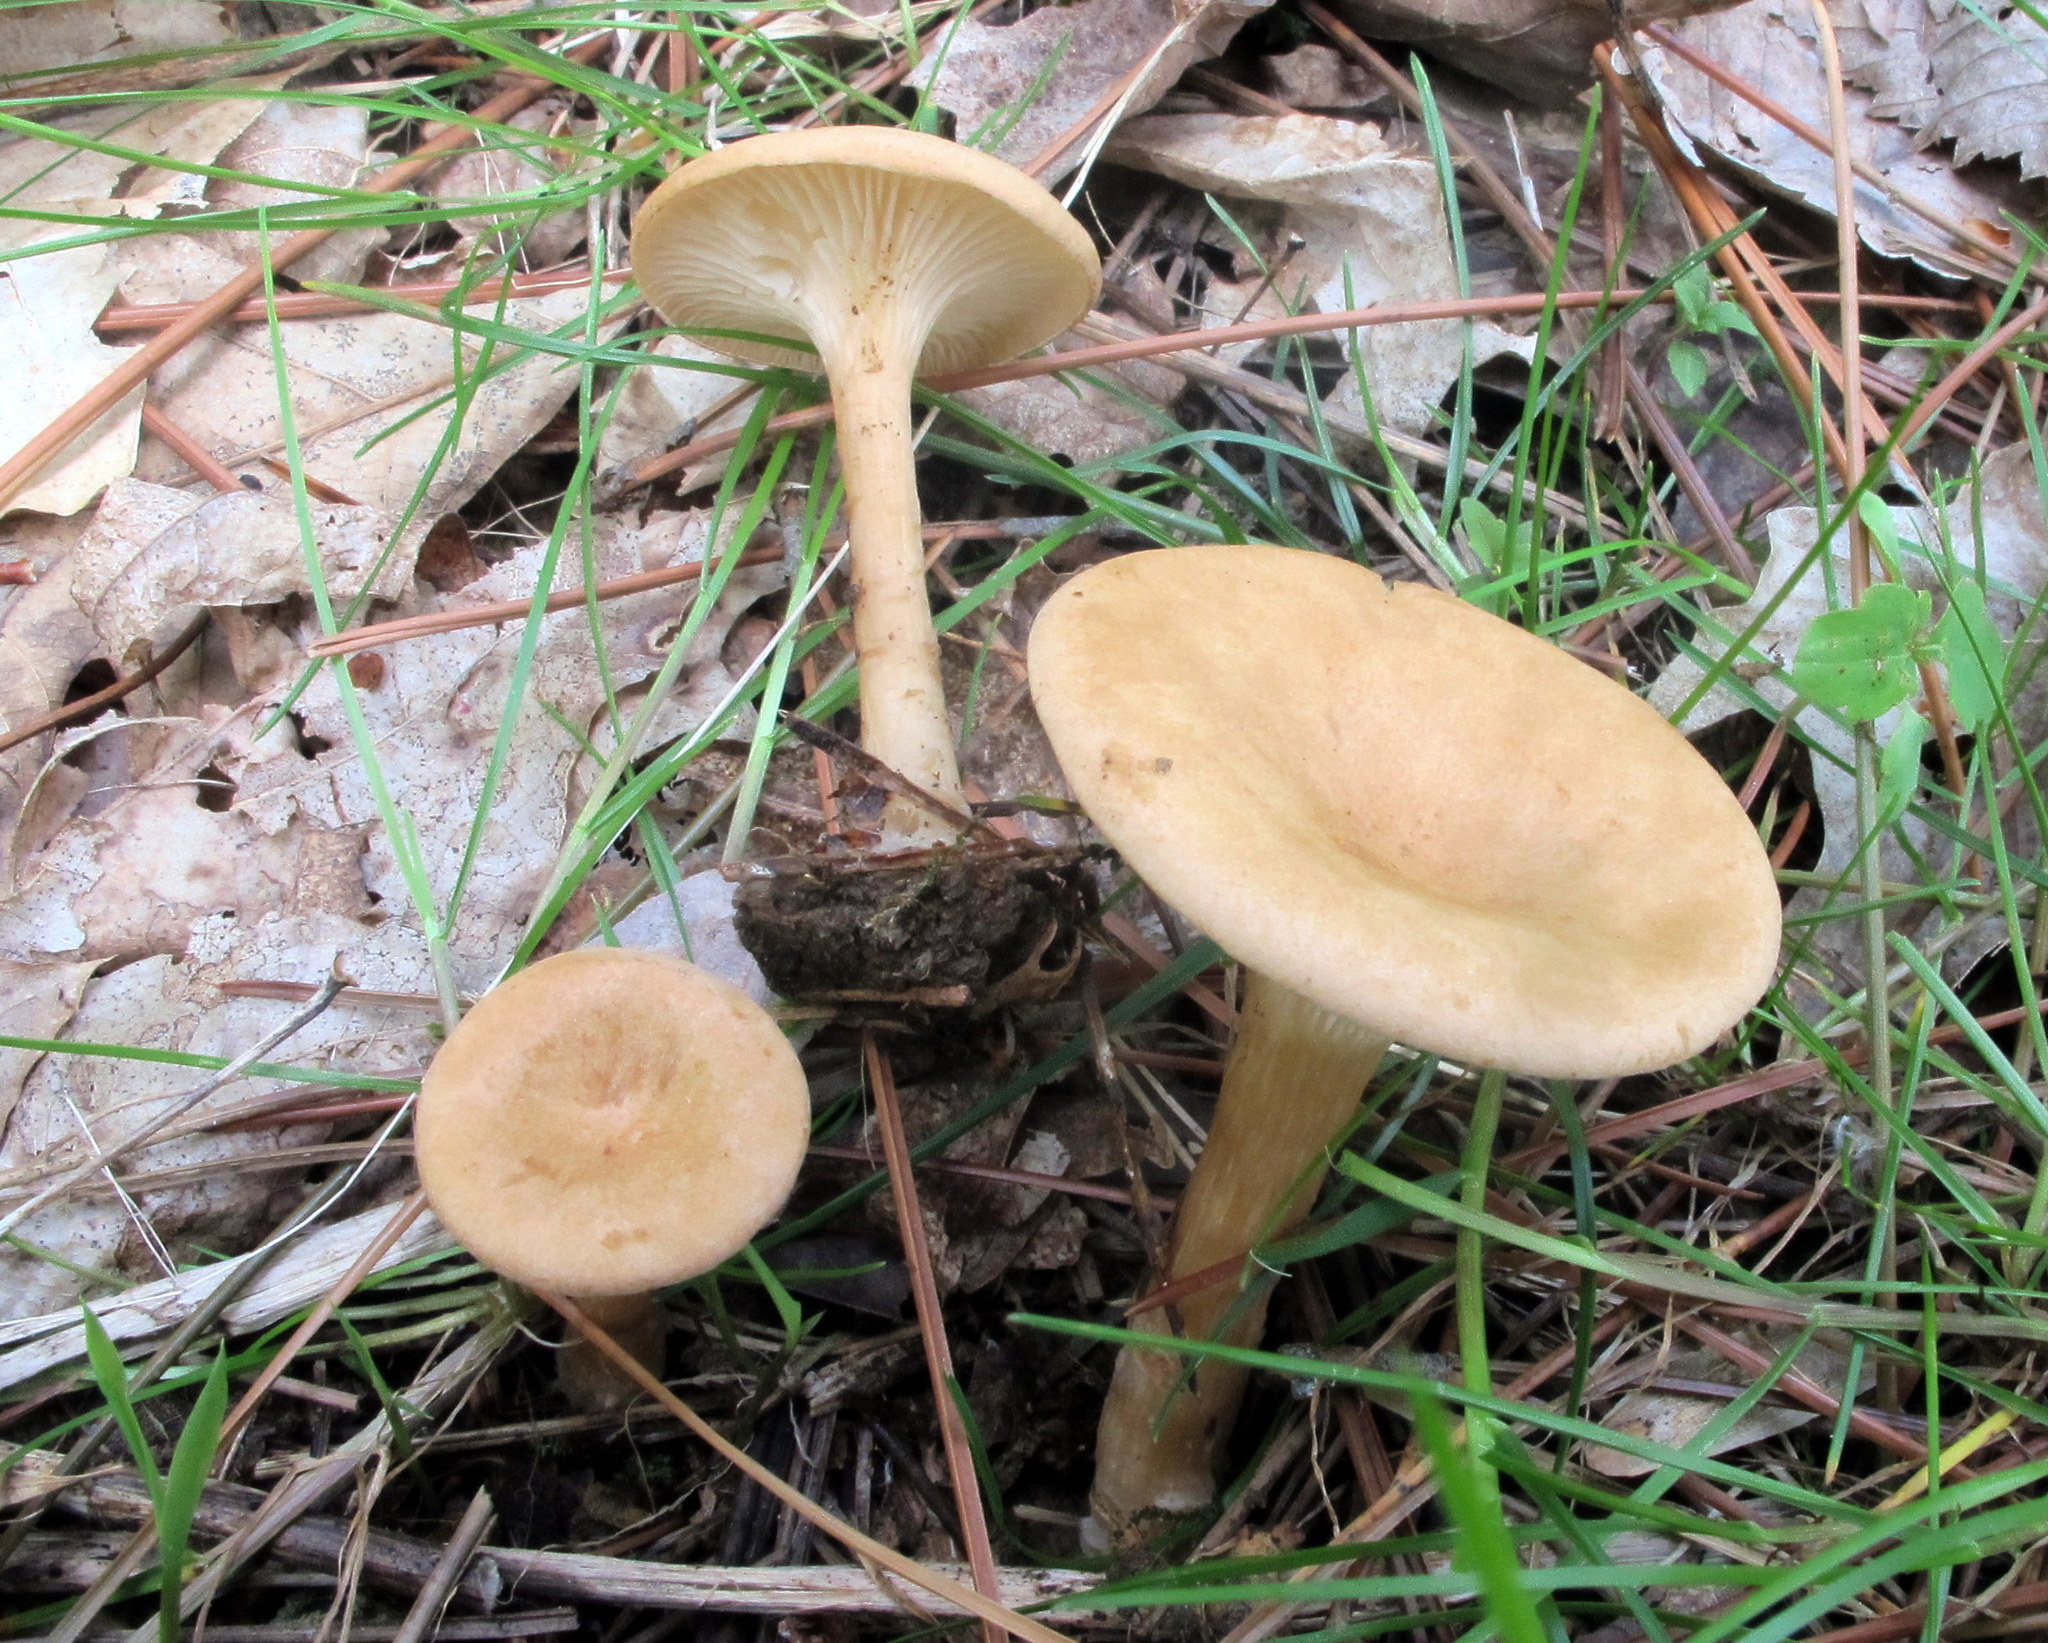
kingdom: Fungi
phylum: Basidiomycota
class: Agaricomycetes
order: Agaricales
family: Tricholomataceae
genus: Infundibulicybe
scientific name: Infundibulicybe gibba
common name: Common funnel
